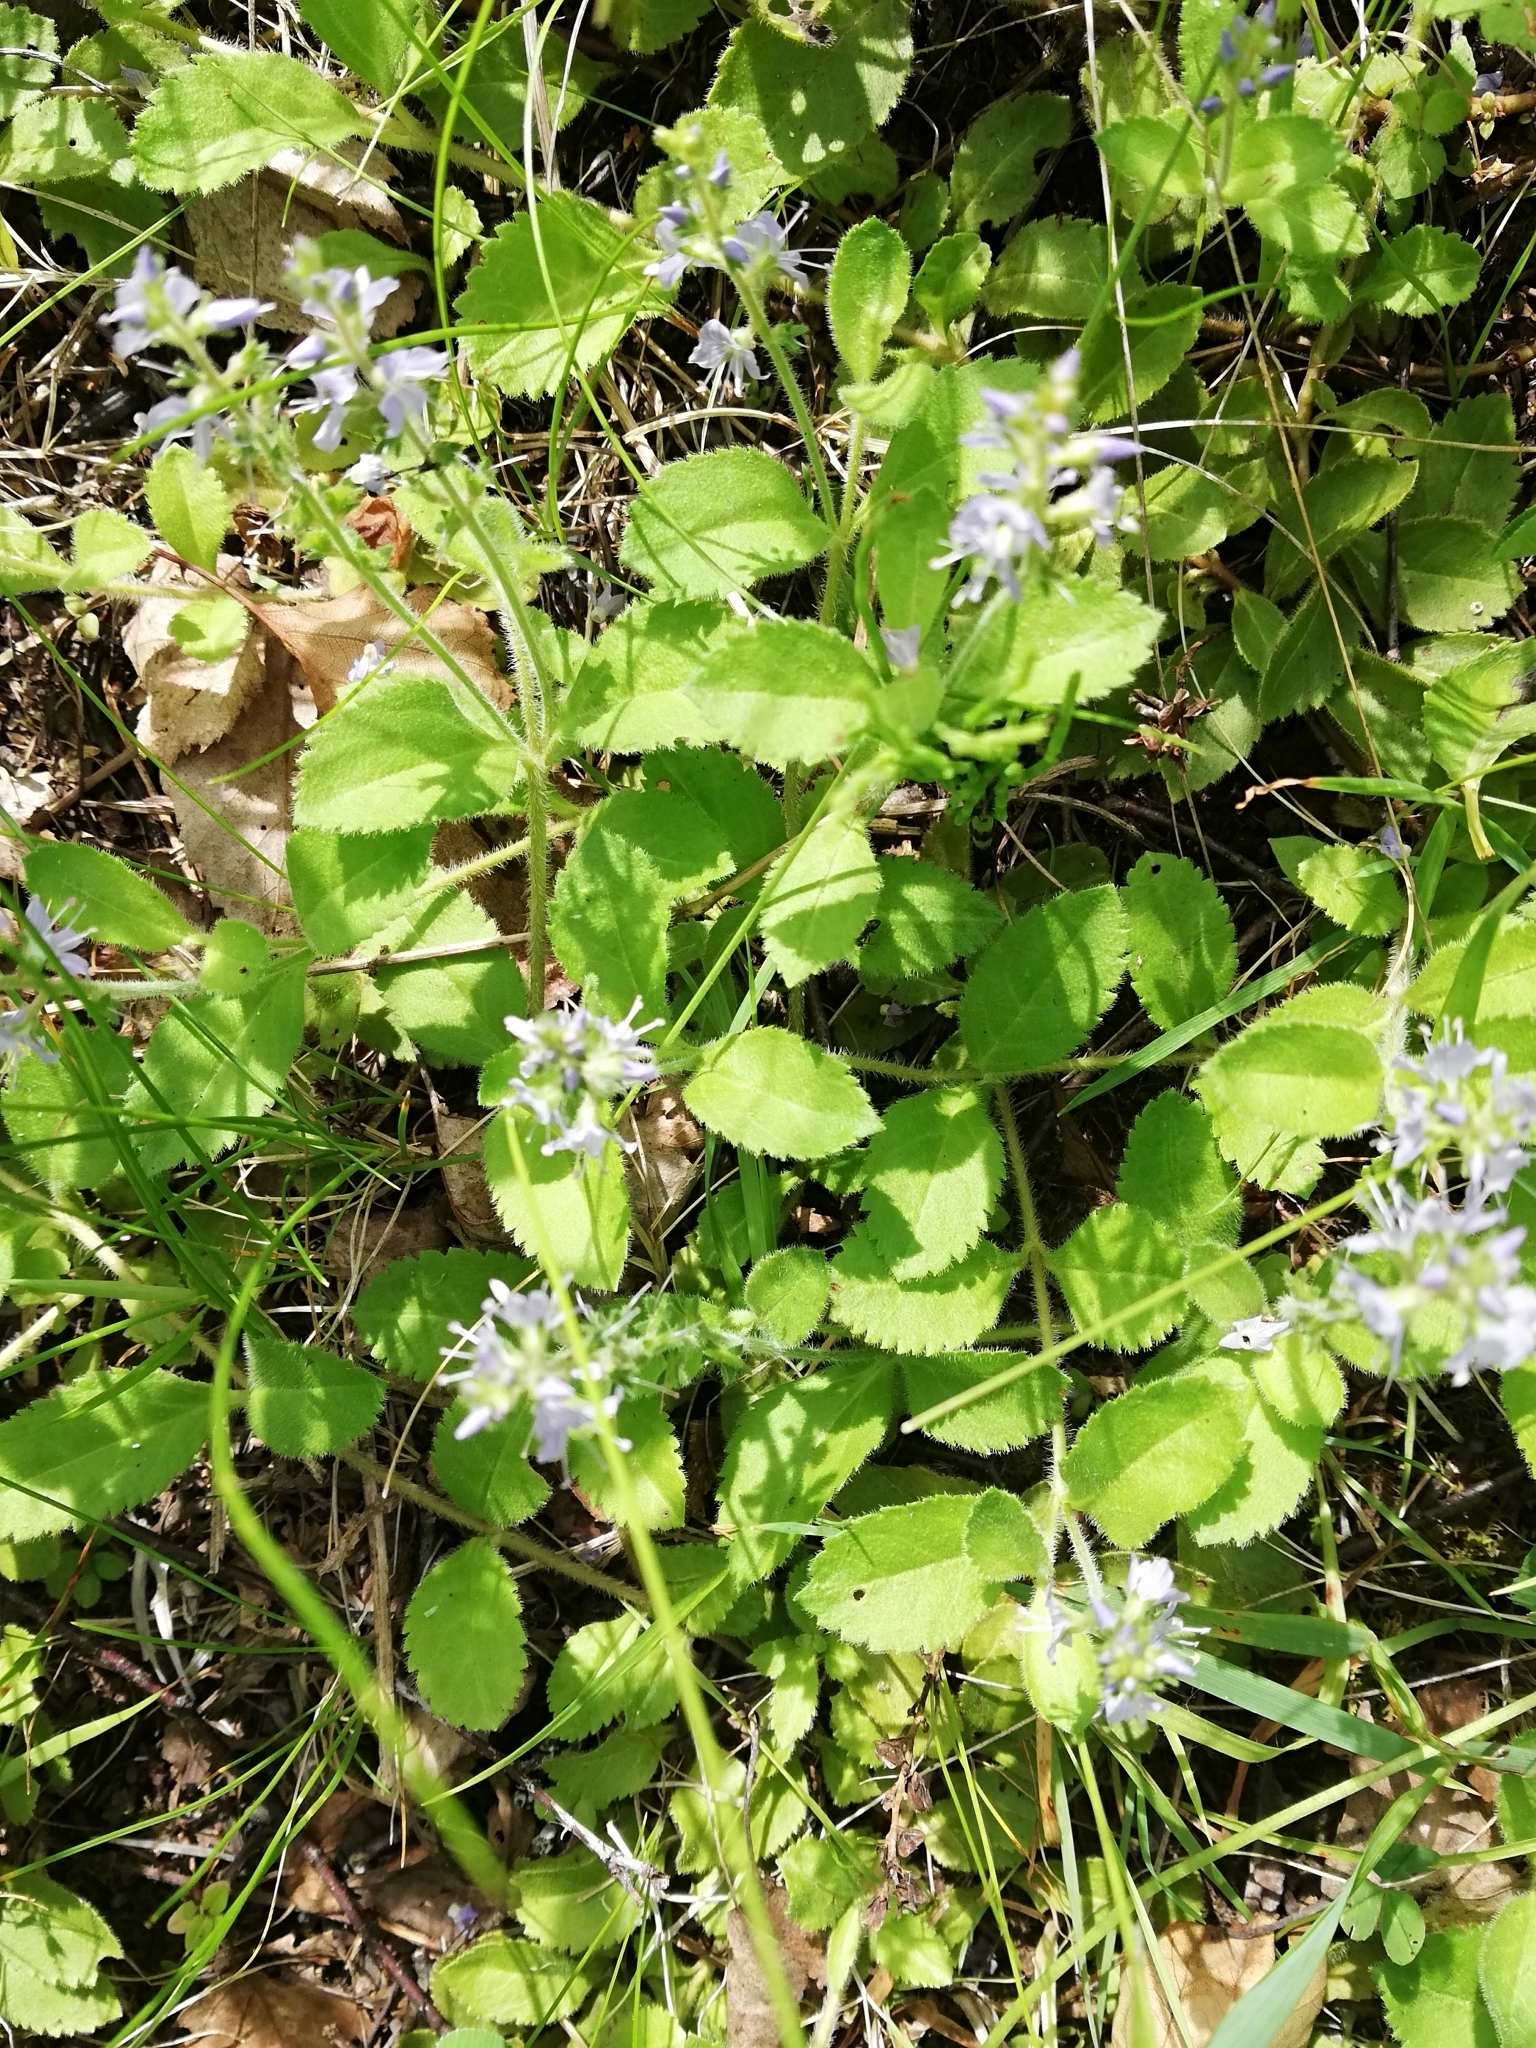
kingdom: Plantae
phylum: Tracheophyta
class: Magnoliopsida
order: Lamiales
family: Plantaginaceae
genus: Veronica
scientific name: Veronica officinalis
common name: Common speedwell
